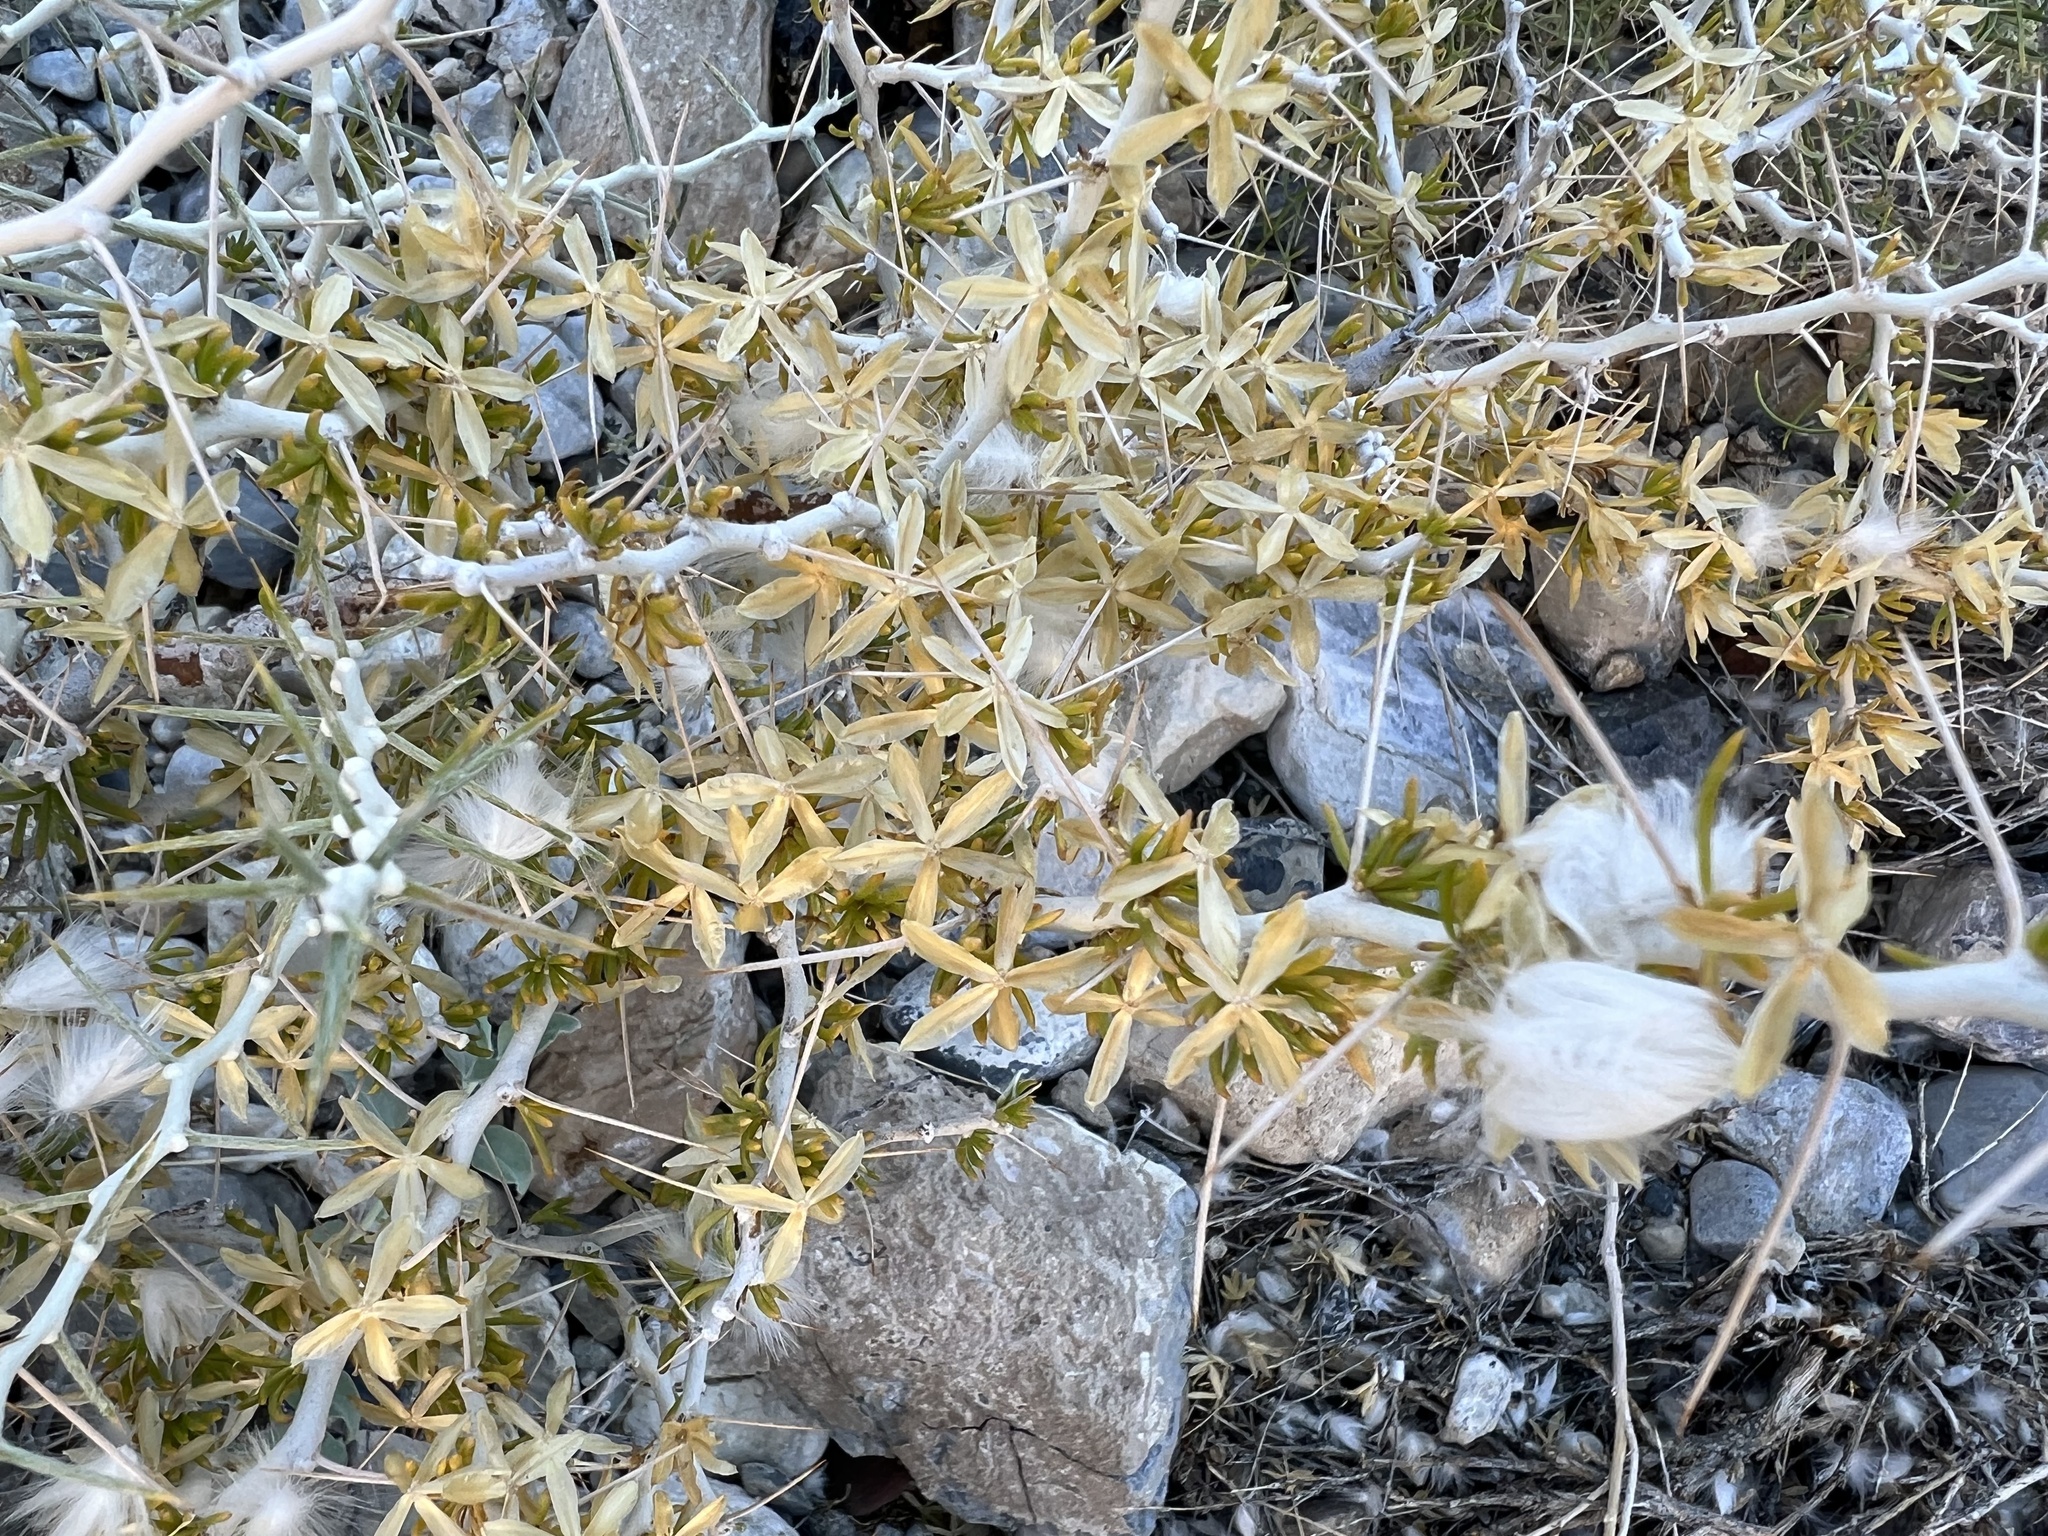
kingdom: Plantae
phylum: Tracheophyta
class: Magnoliopsida
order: Asterales
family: Asteraceae
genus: Tetradymia
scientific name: Tetradymia axillaris
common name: Long-spine horsebrush
